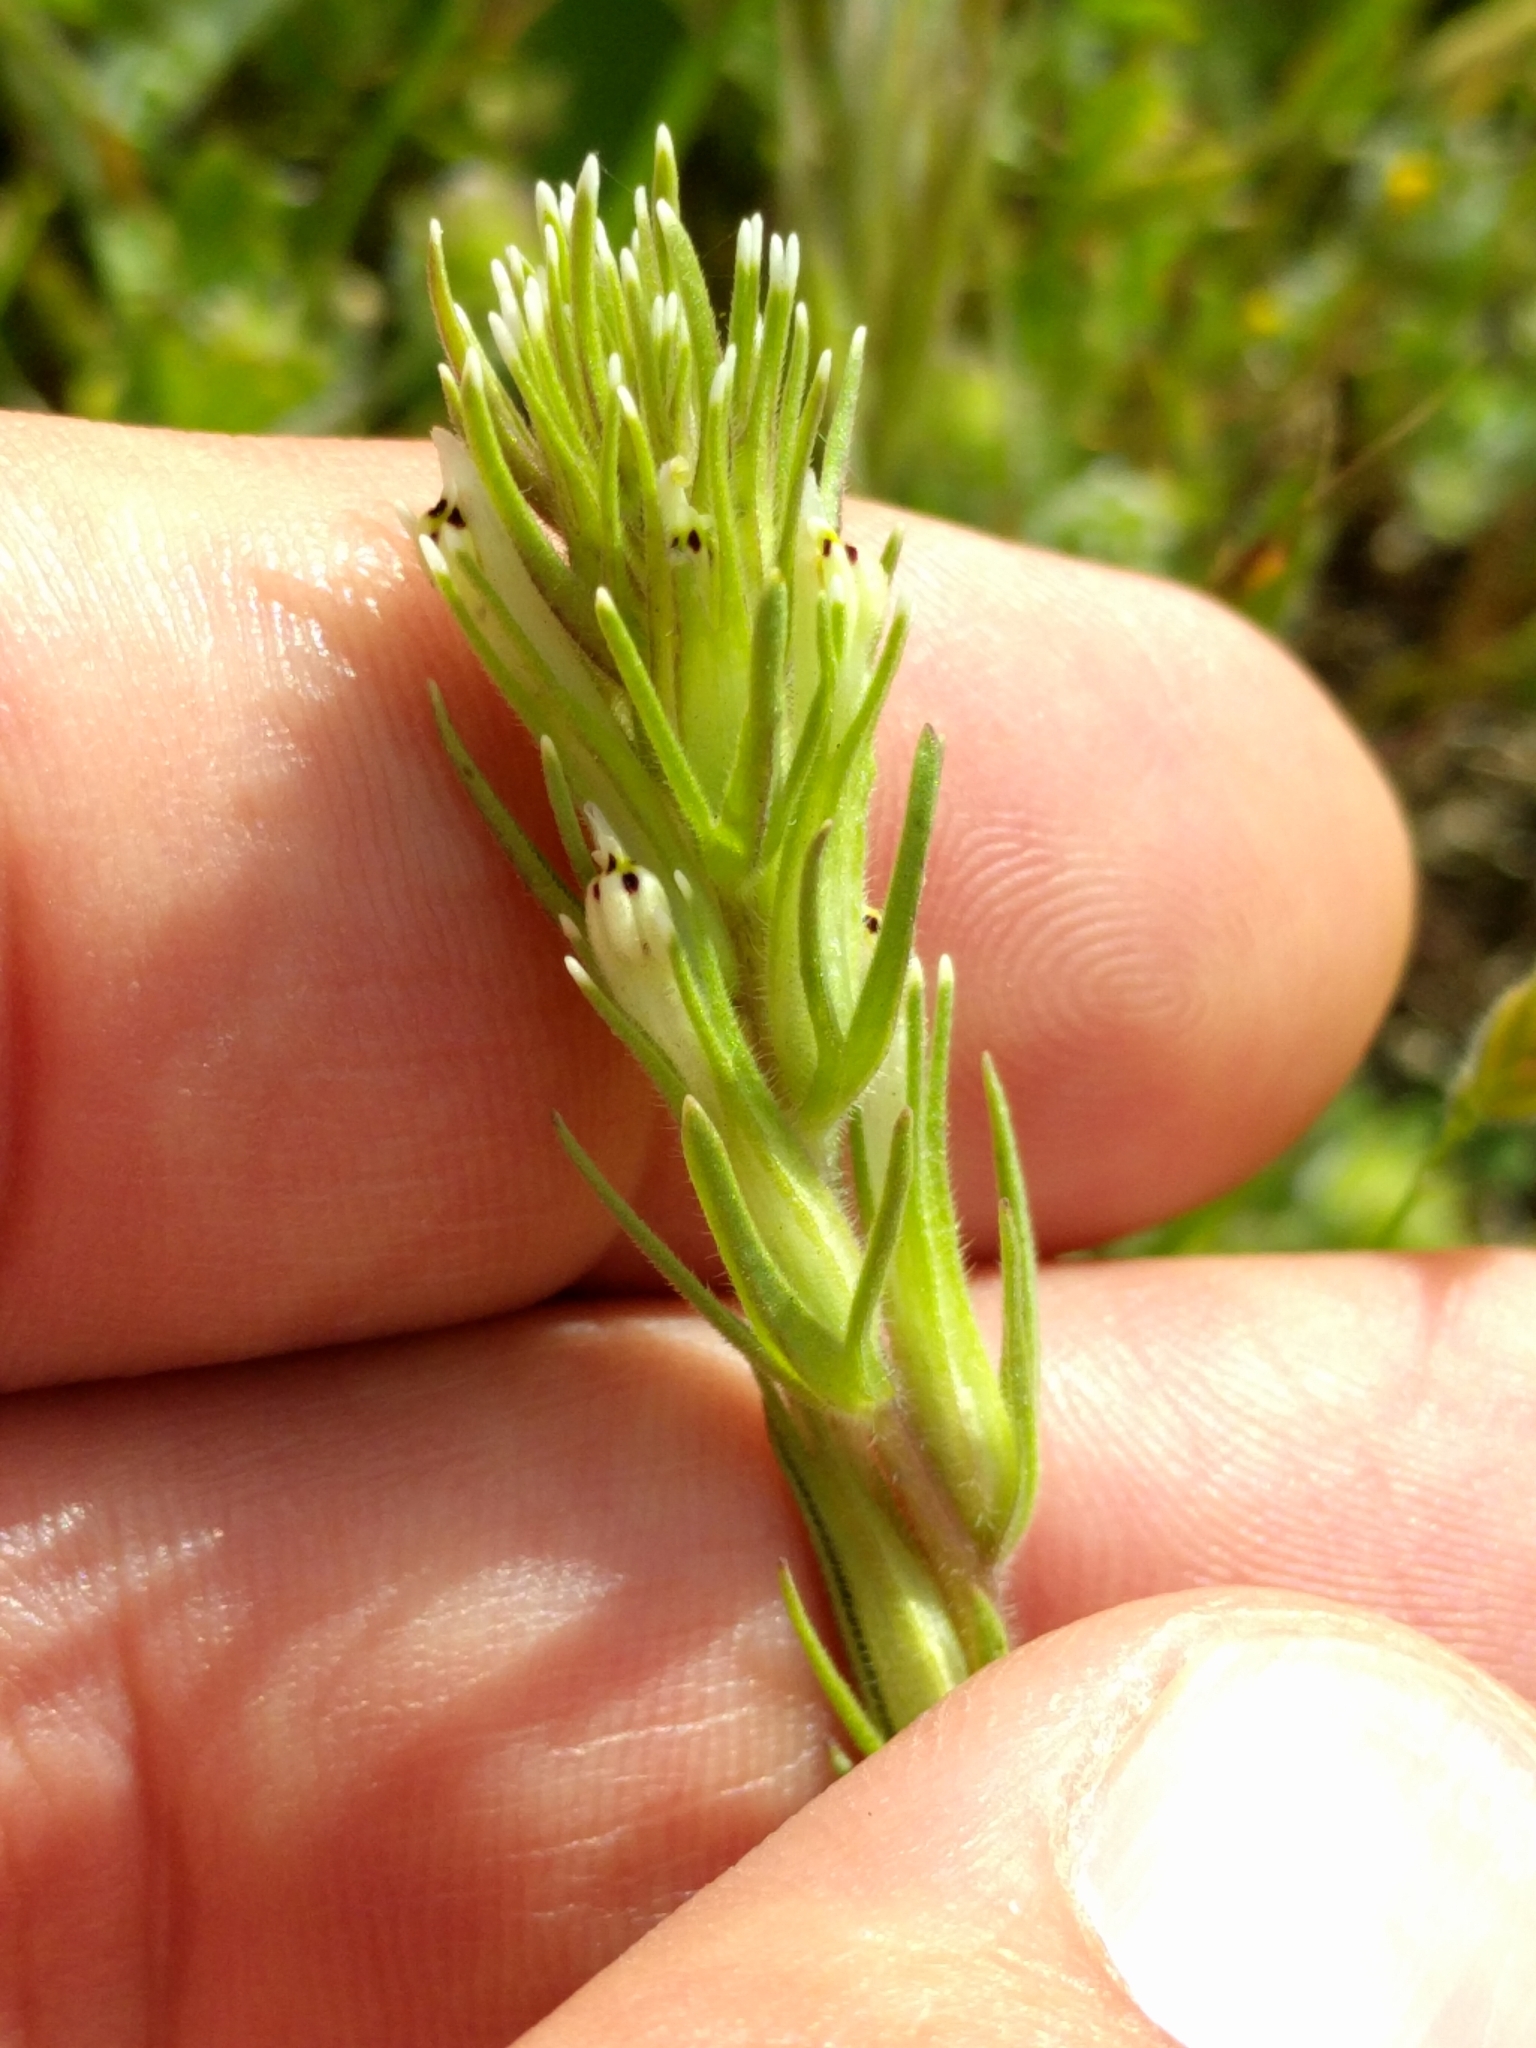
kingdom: Plantae
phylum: Tracheophyta
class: Magnoliopsida
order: Lamiales
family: Orobanchaceae
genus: Castilleja
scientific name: Castilleja attenuata
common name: Valley tassels
